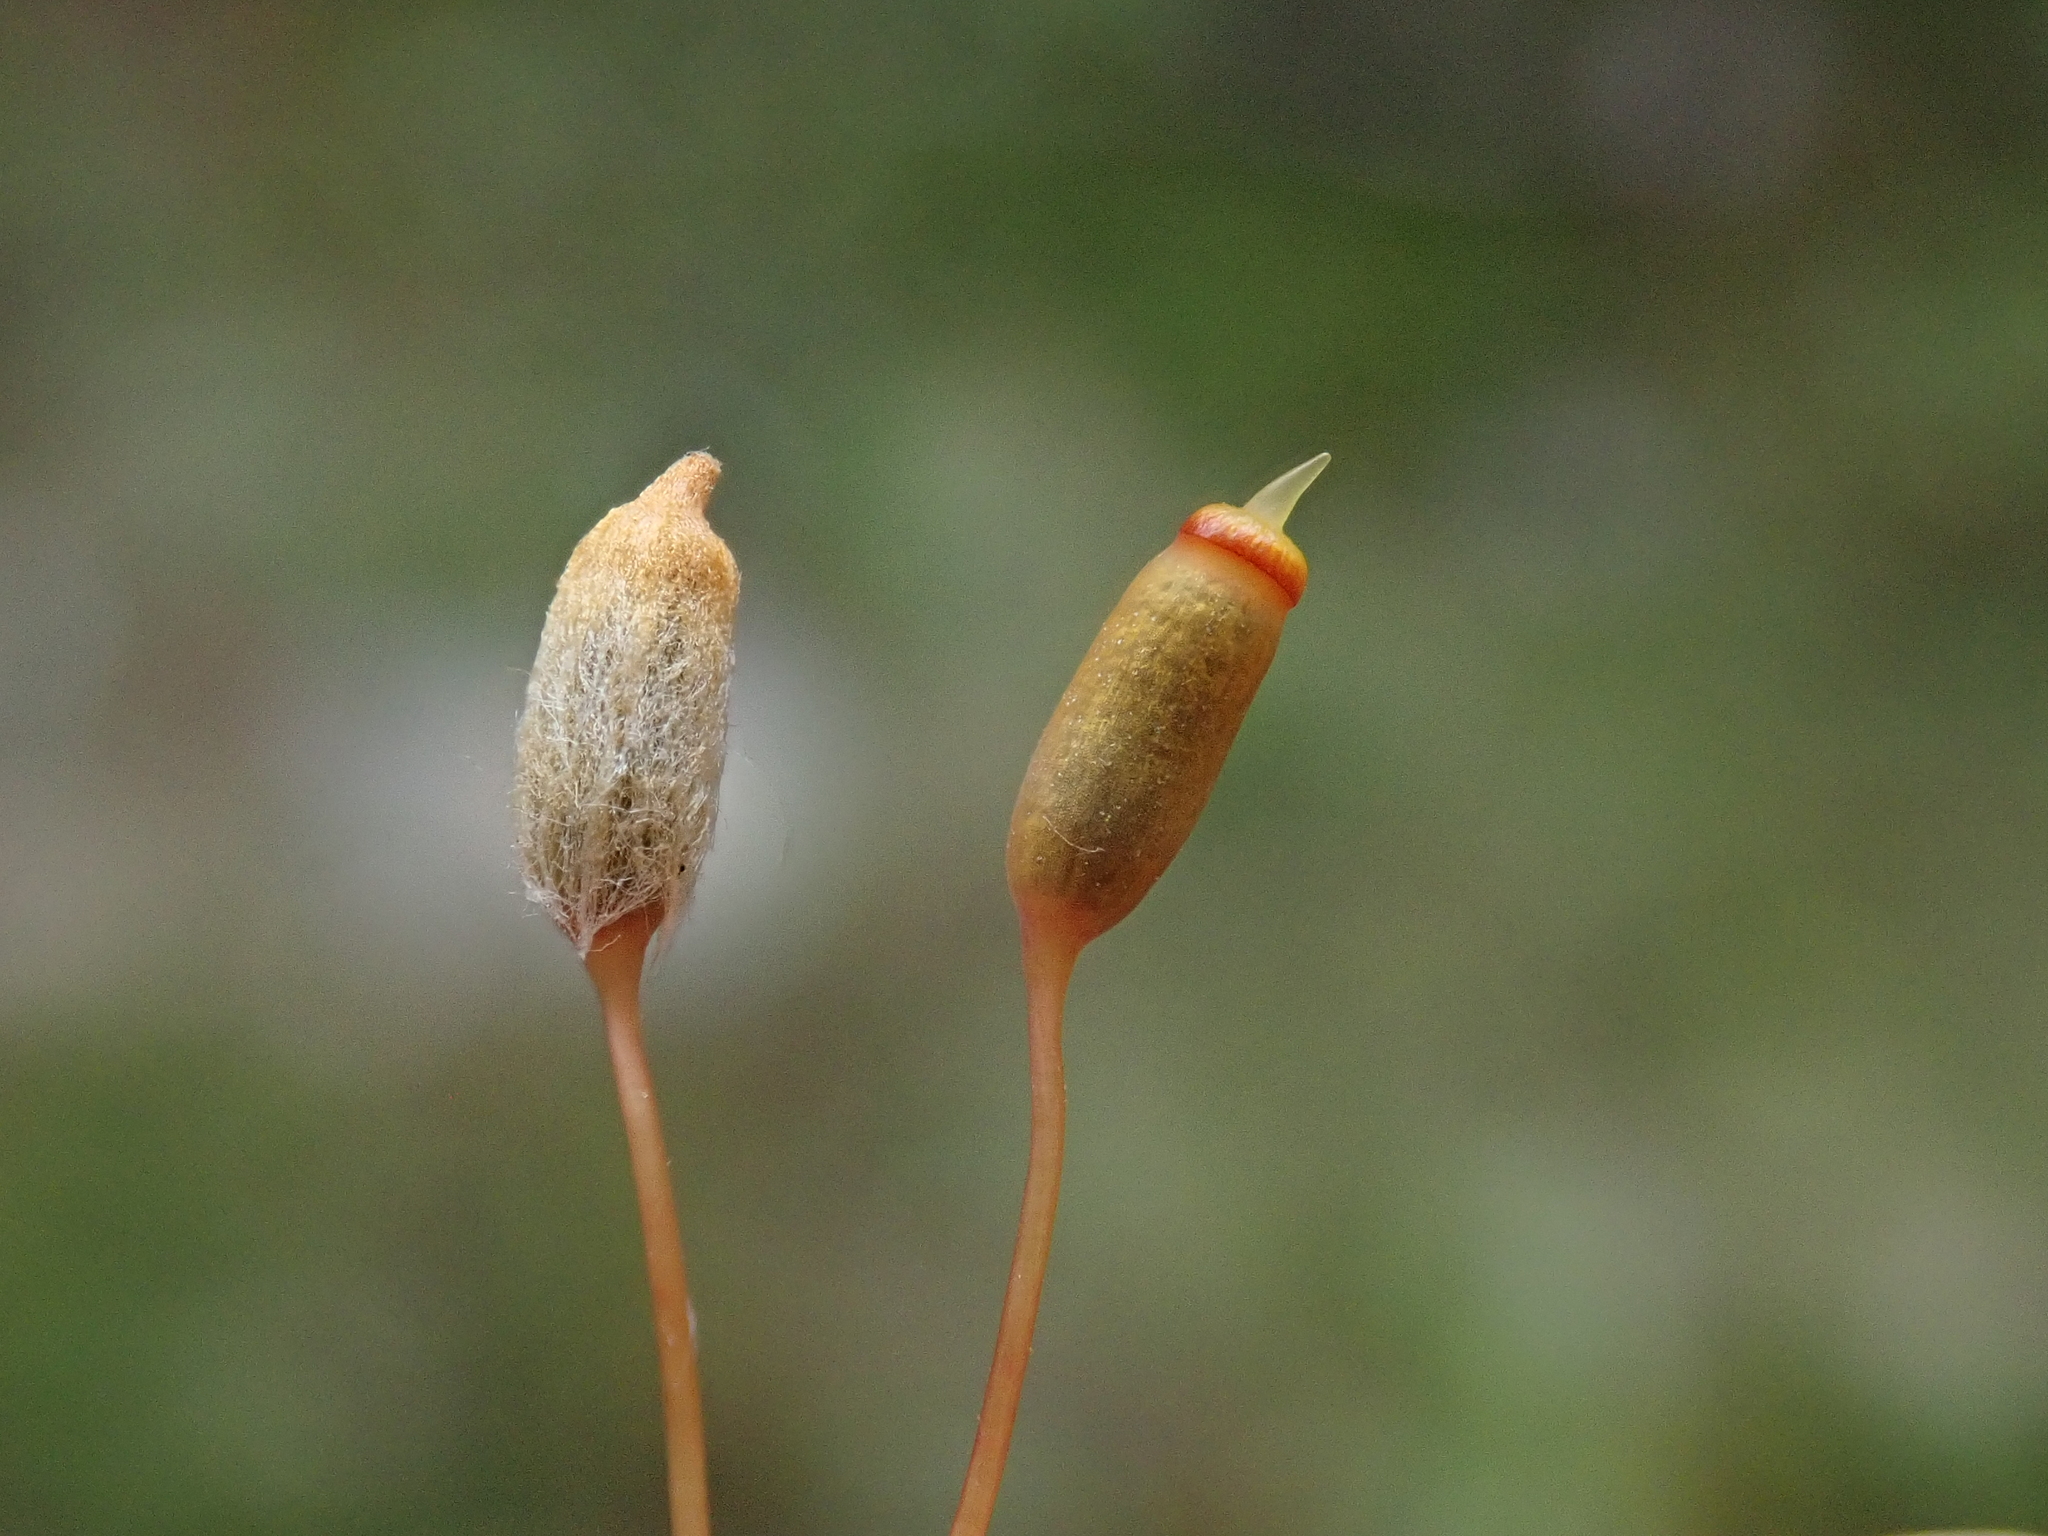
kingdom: Plantae
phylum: Bryophyta
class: Polytrichopsida
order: Polytrichales
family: Polytrichaceae
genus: Pogonatum
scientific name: Pogonatum urnigerum
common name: Urn hair moss
